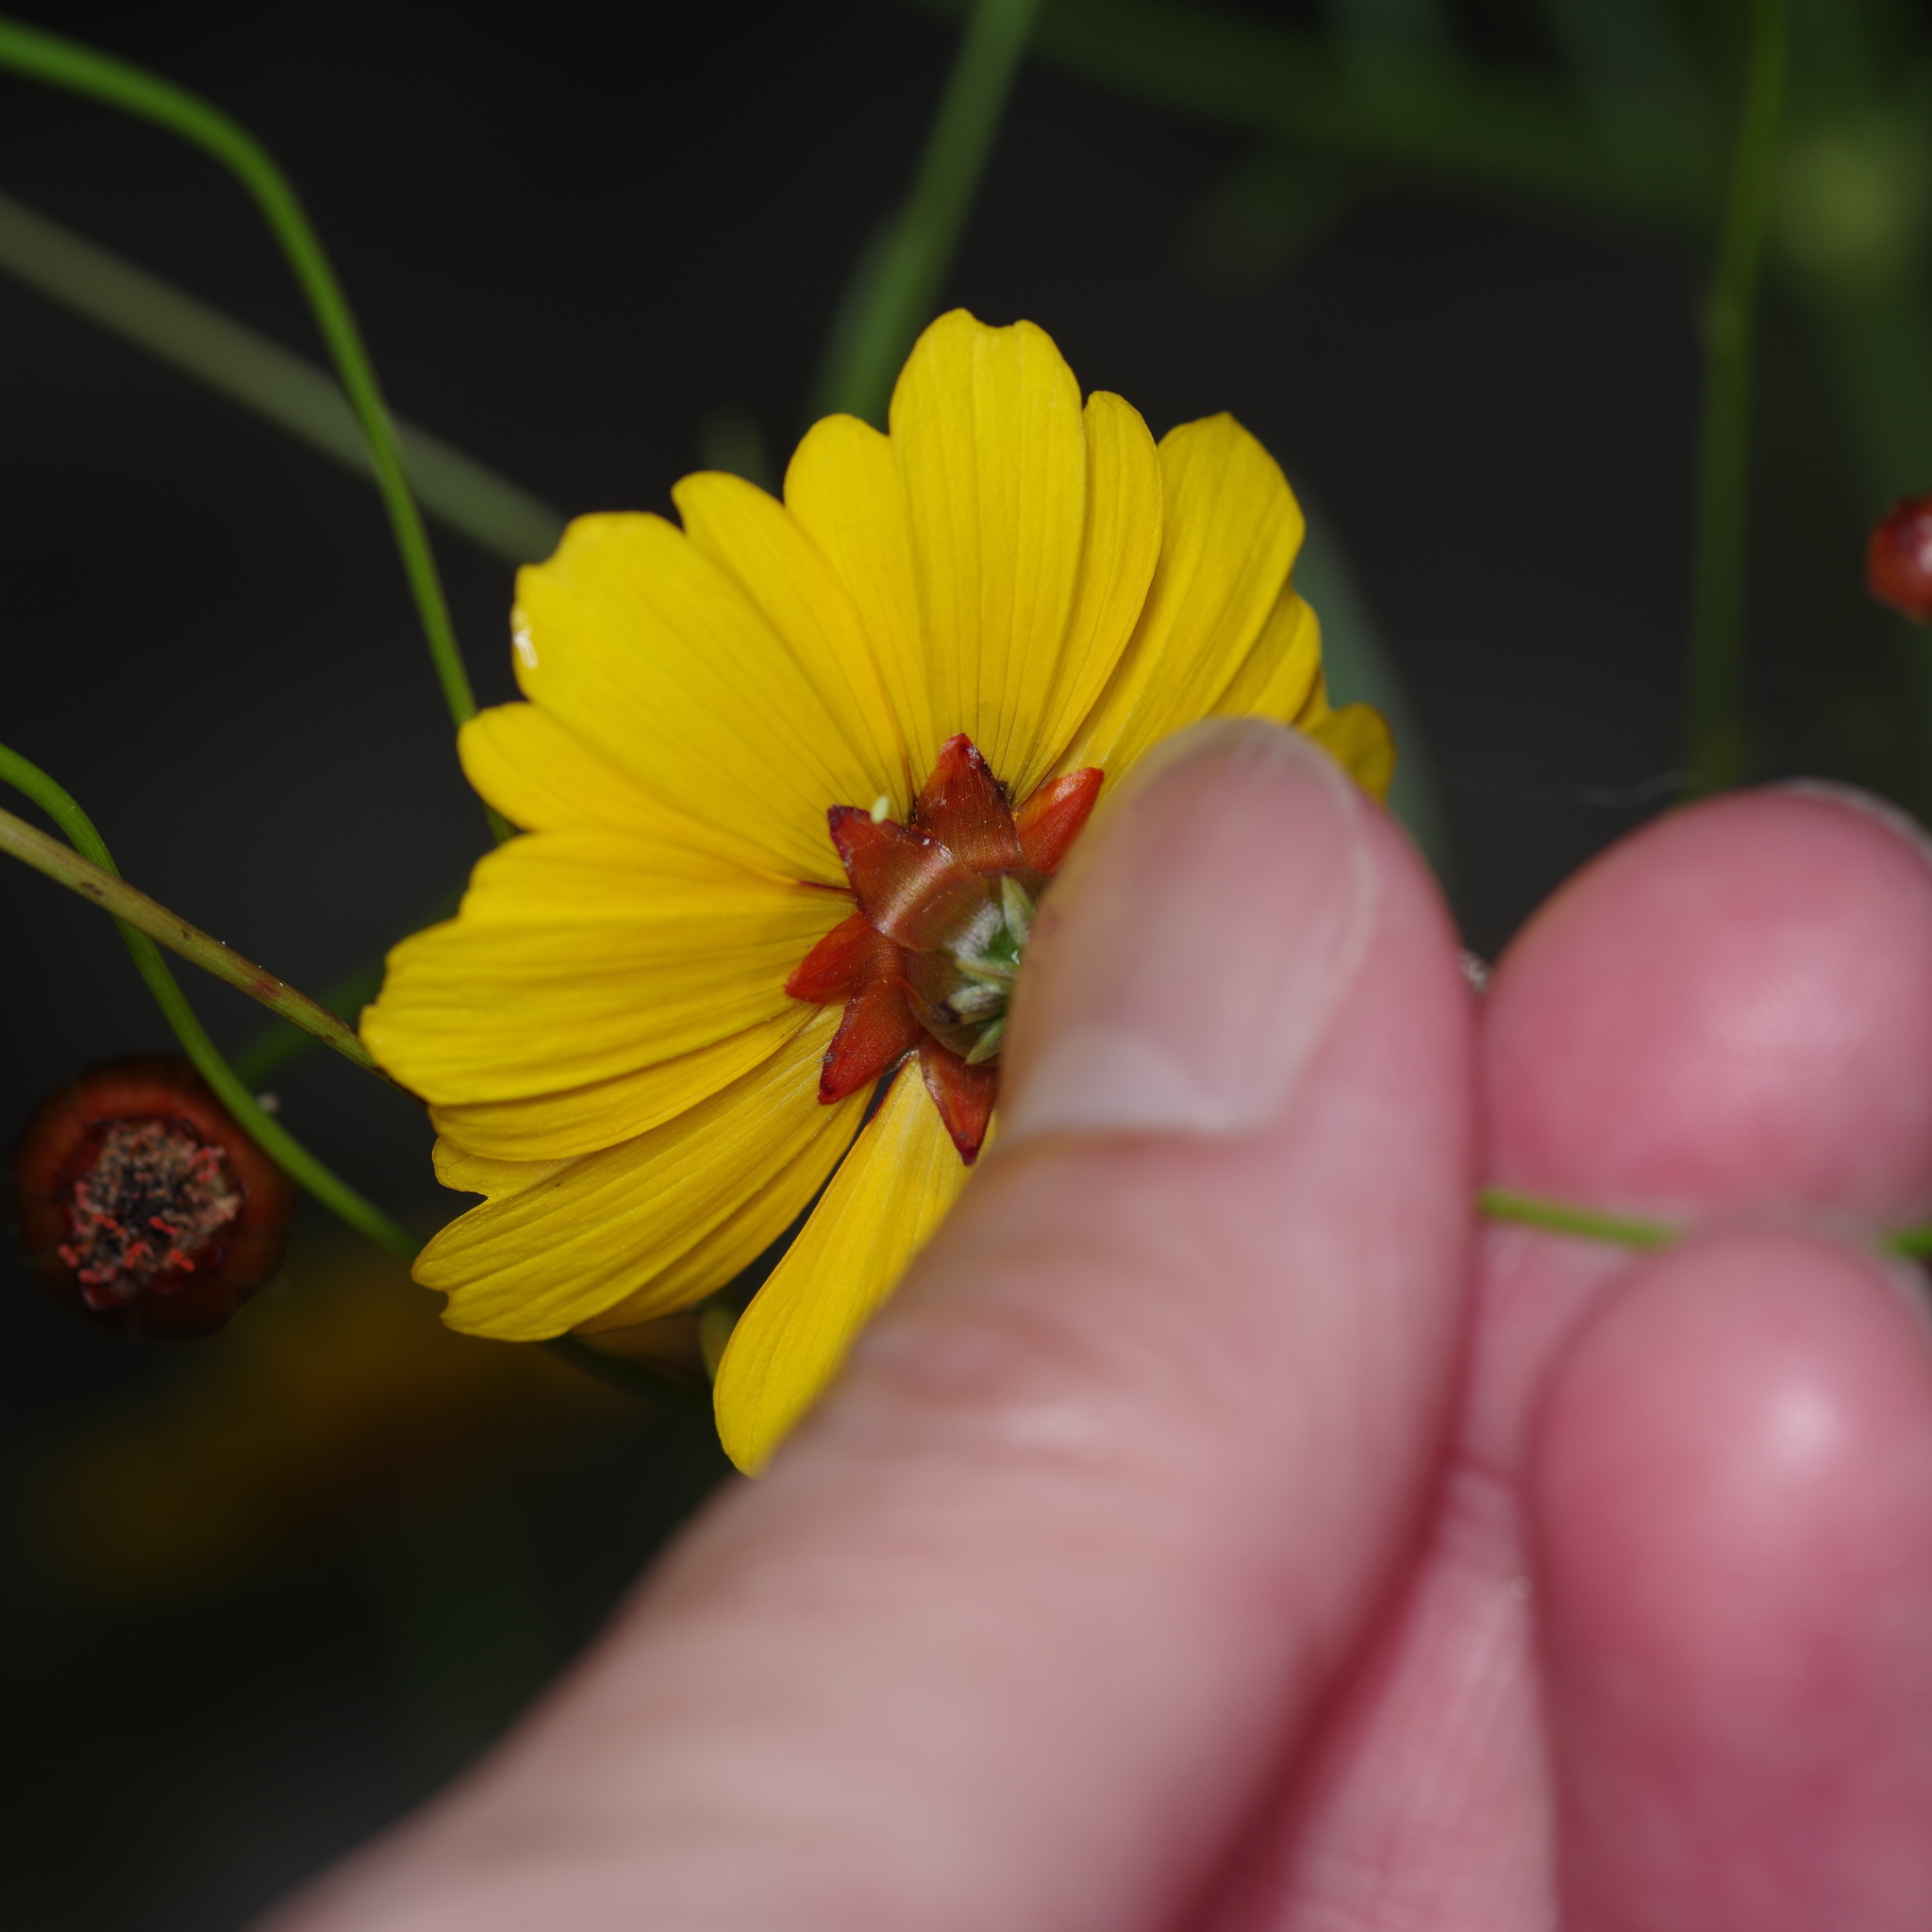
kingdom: Plantae
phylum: Tracheophyta
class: Magnoliopsida
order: Asterales
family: Asteraceae
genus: Coreopsis
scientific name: Coreopsis tinctoria
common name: Garden tickseed
